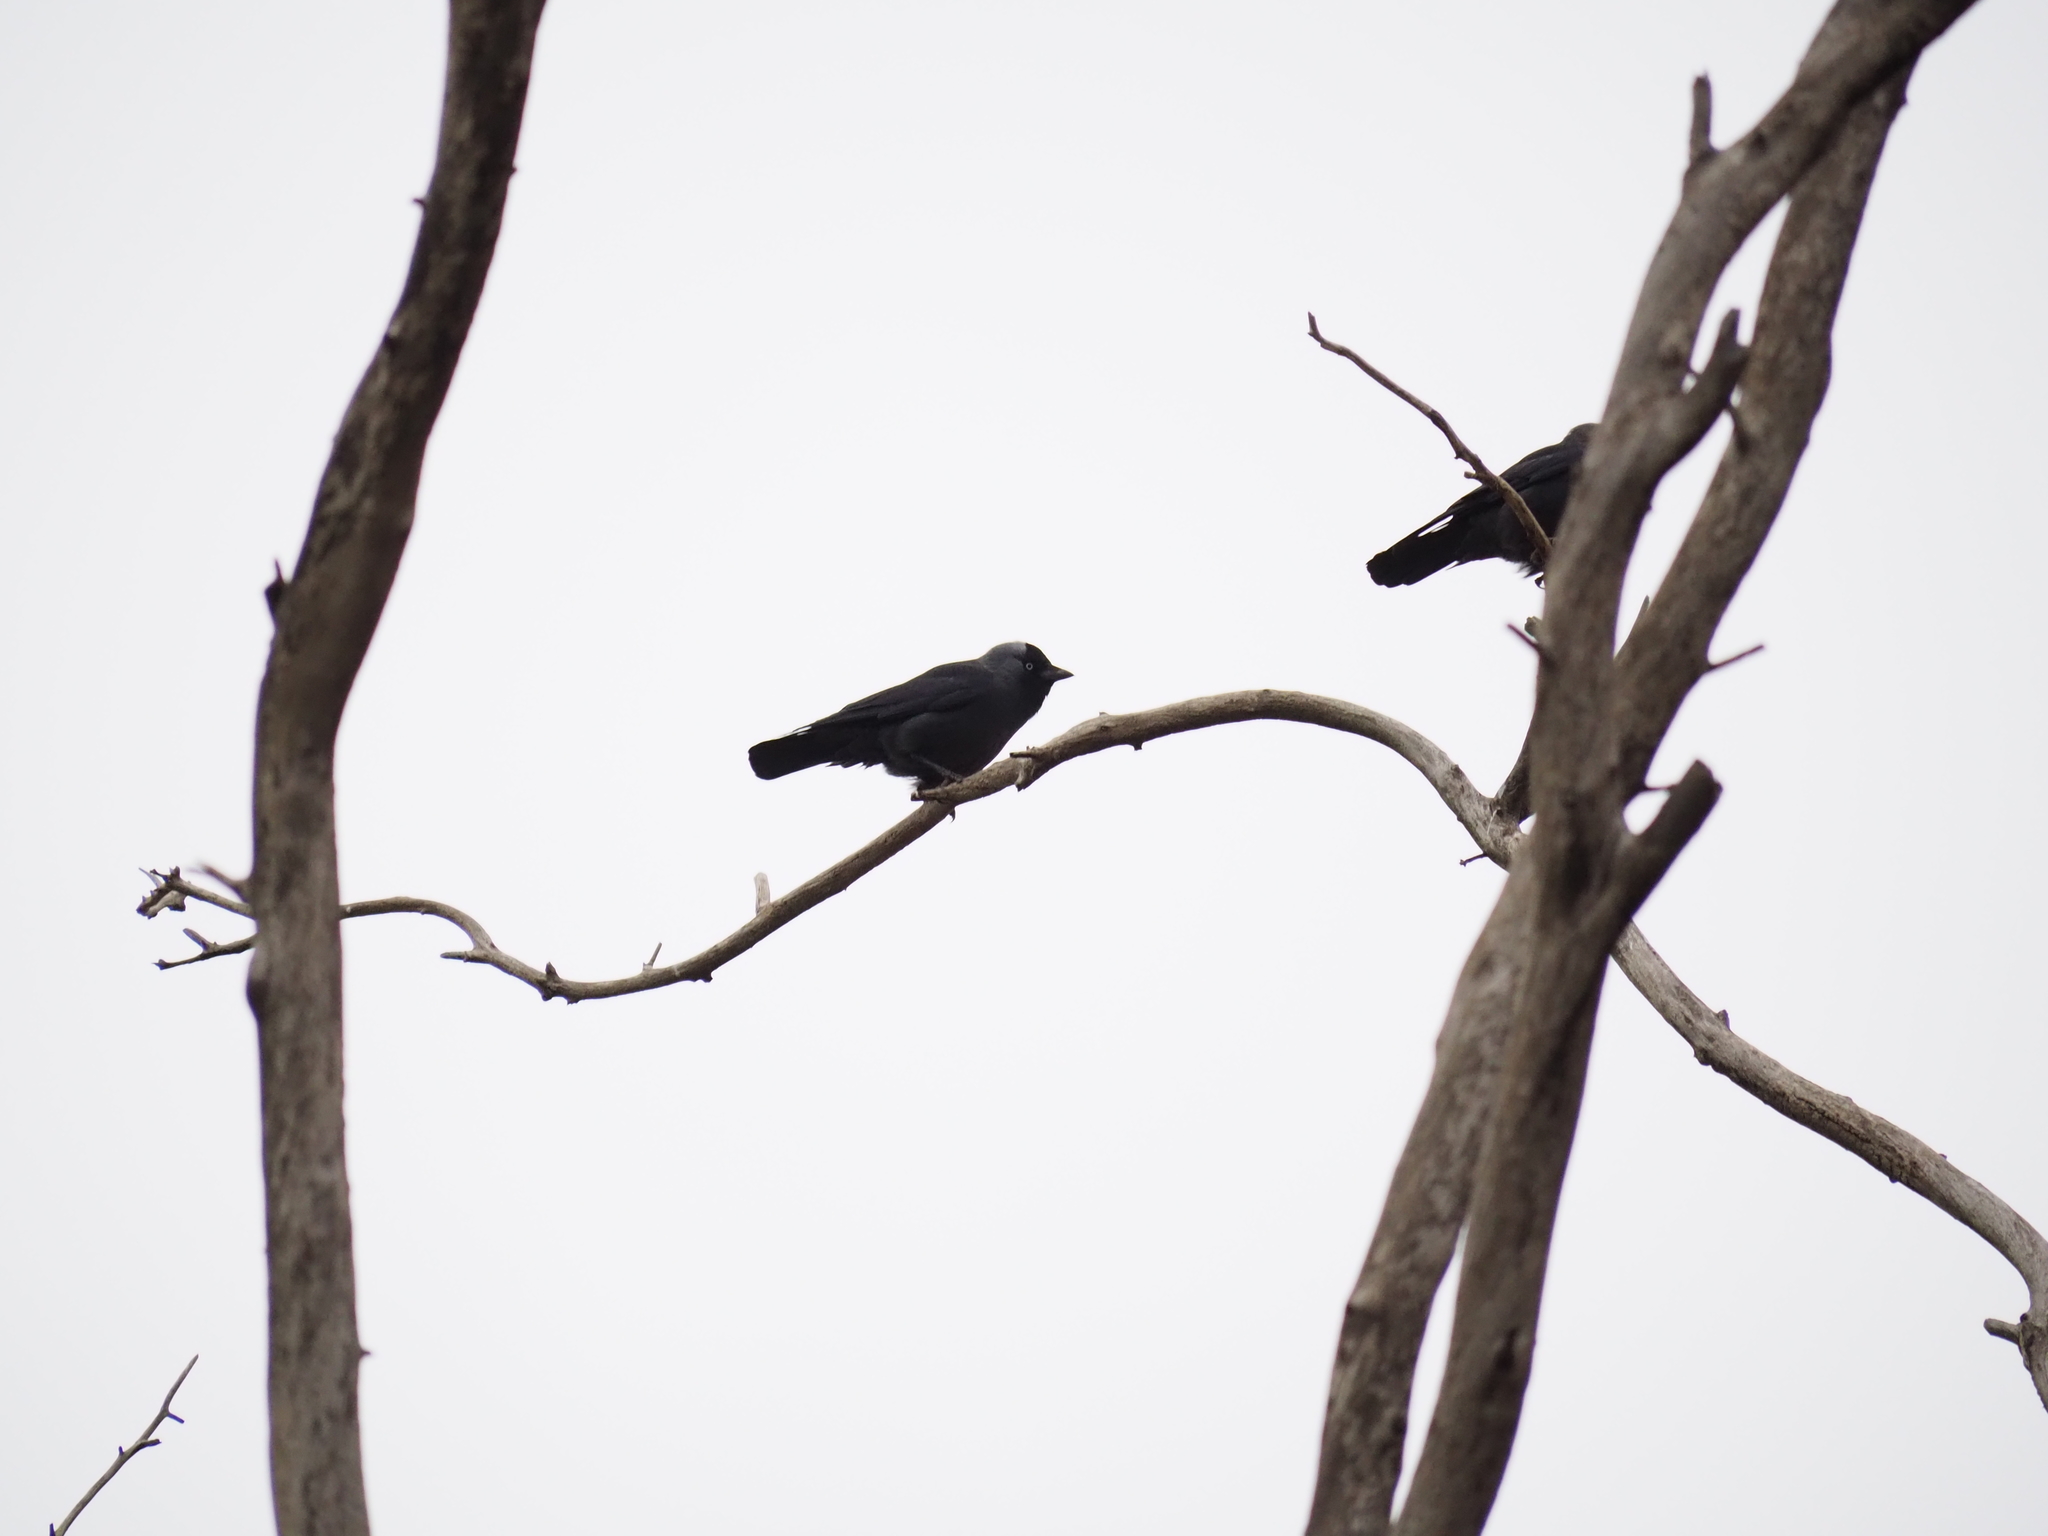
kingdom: Animalia
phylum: Chordata
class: Aves
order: Passeriformes
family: Corvidae
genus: Coloeus
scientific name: Coloeus monedula
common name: Western jackdaw
